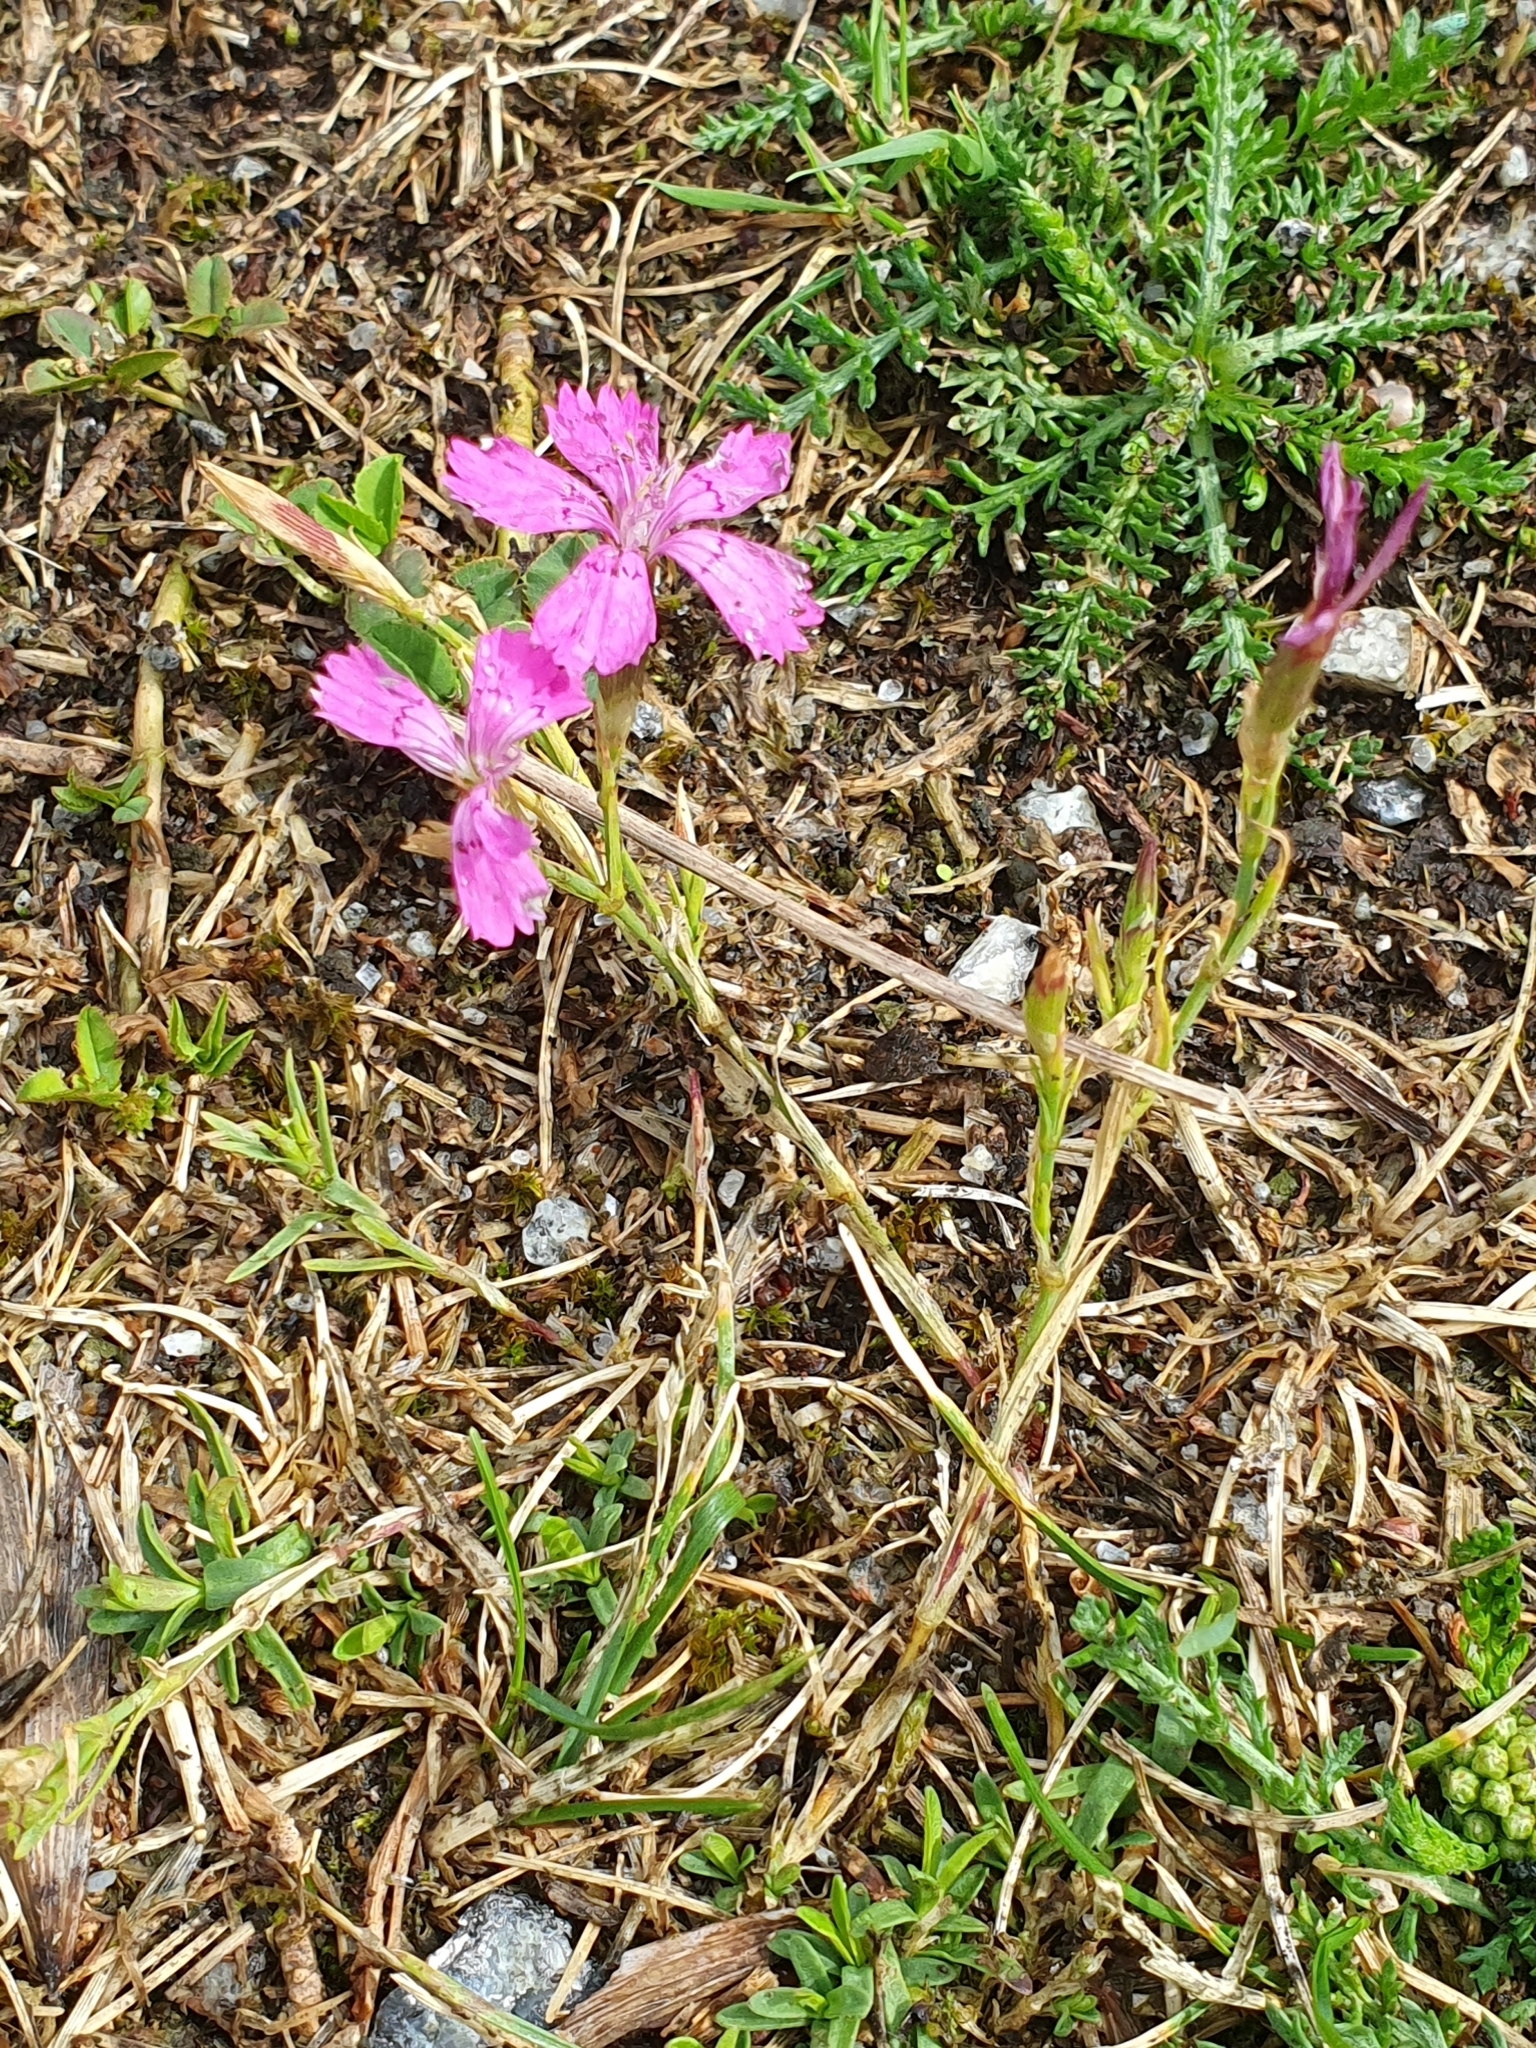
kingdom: Plantae
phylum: Tracheophyta
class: Magnoliopsida
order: Caryophyllales
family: Caryophyllaceae
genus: Dianthus
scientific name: Dianthus deltoides
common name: Maiden pink
